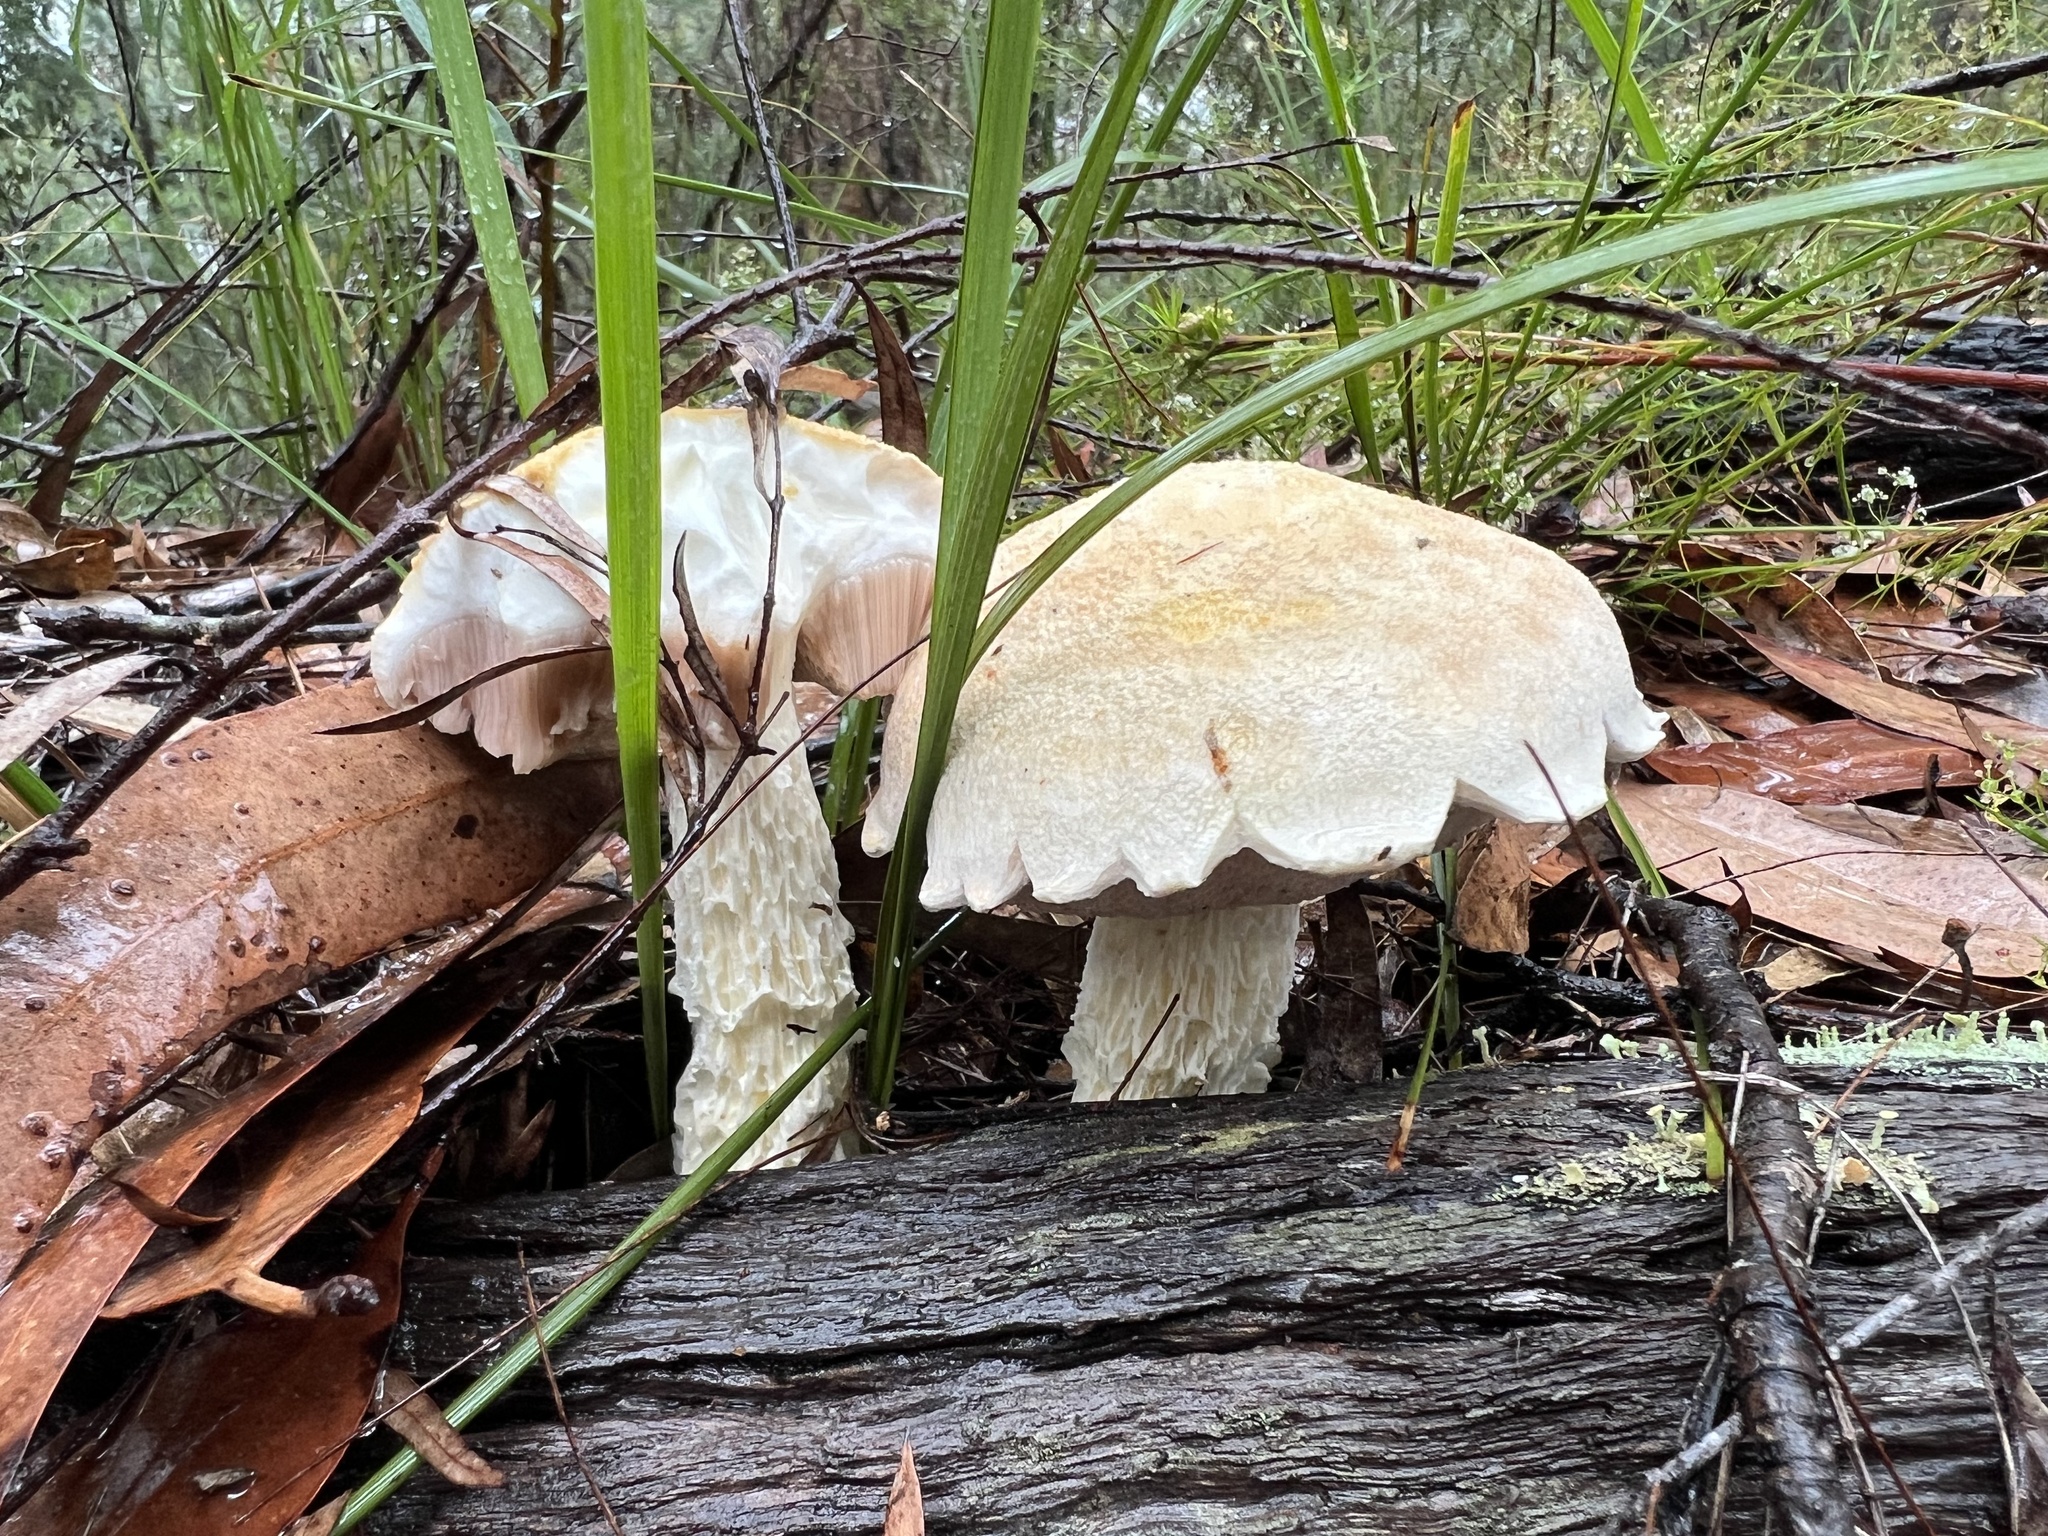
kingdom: Fungi
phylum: Basidiomycota
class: Agaricomycetes
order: Boletales
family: Boletaceae
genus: Fistulinella
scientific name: Fistulinella nivea
